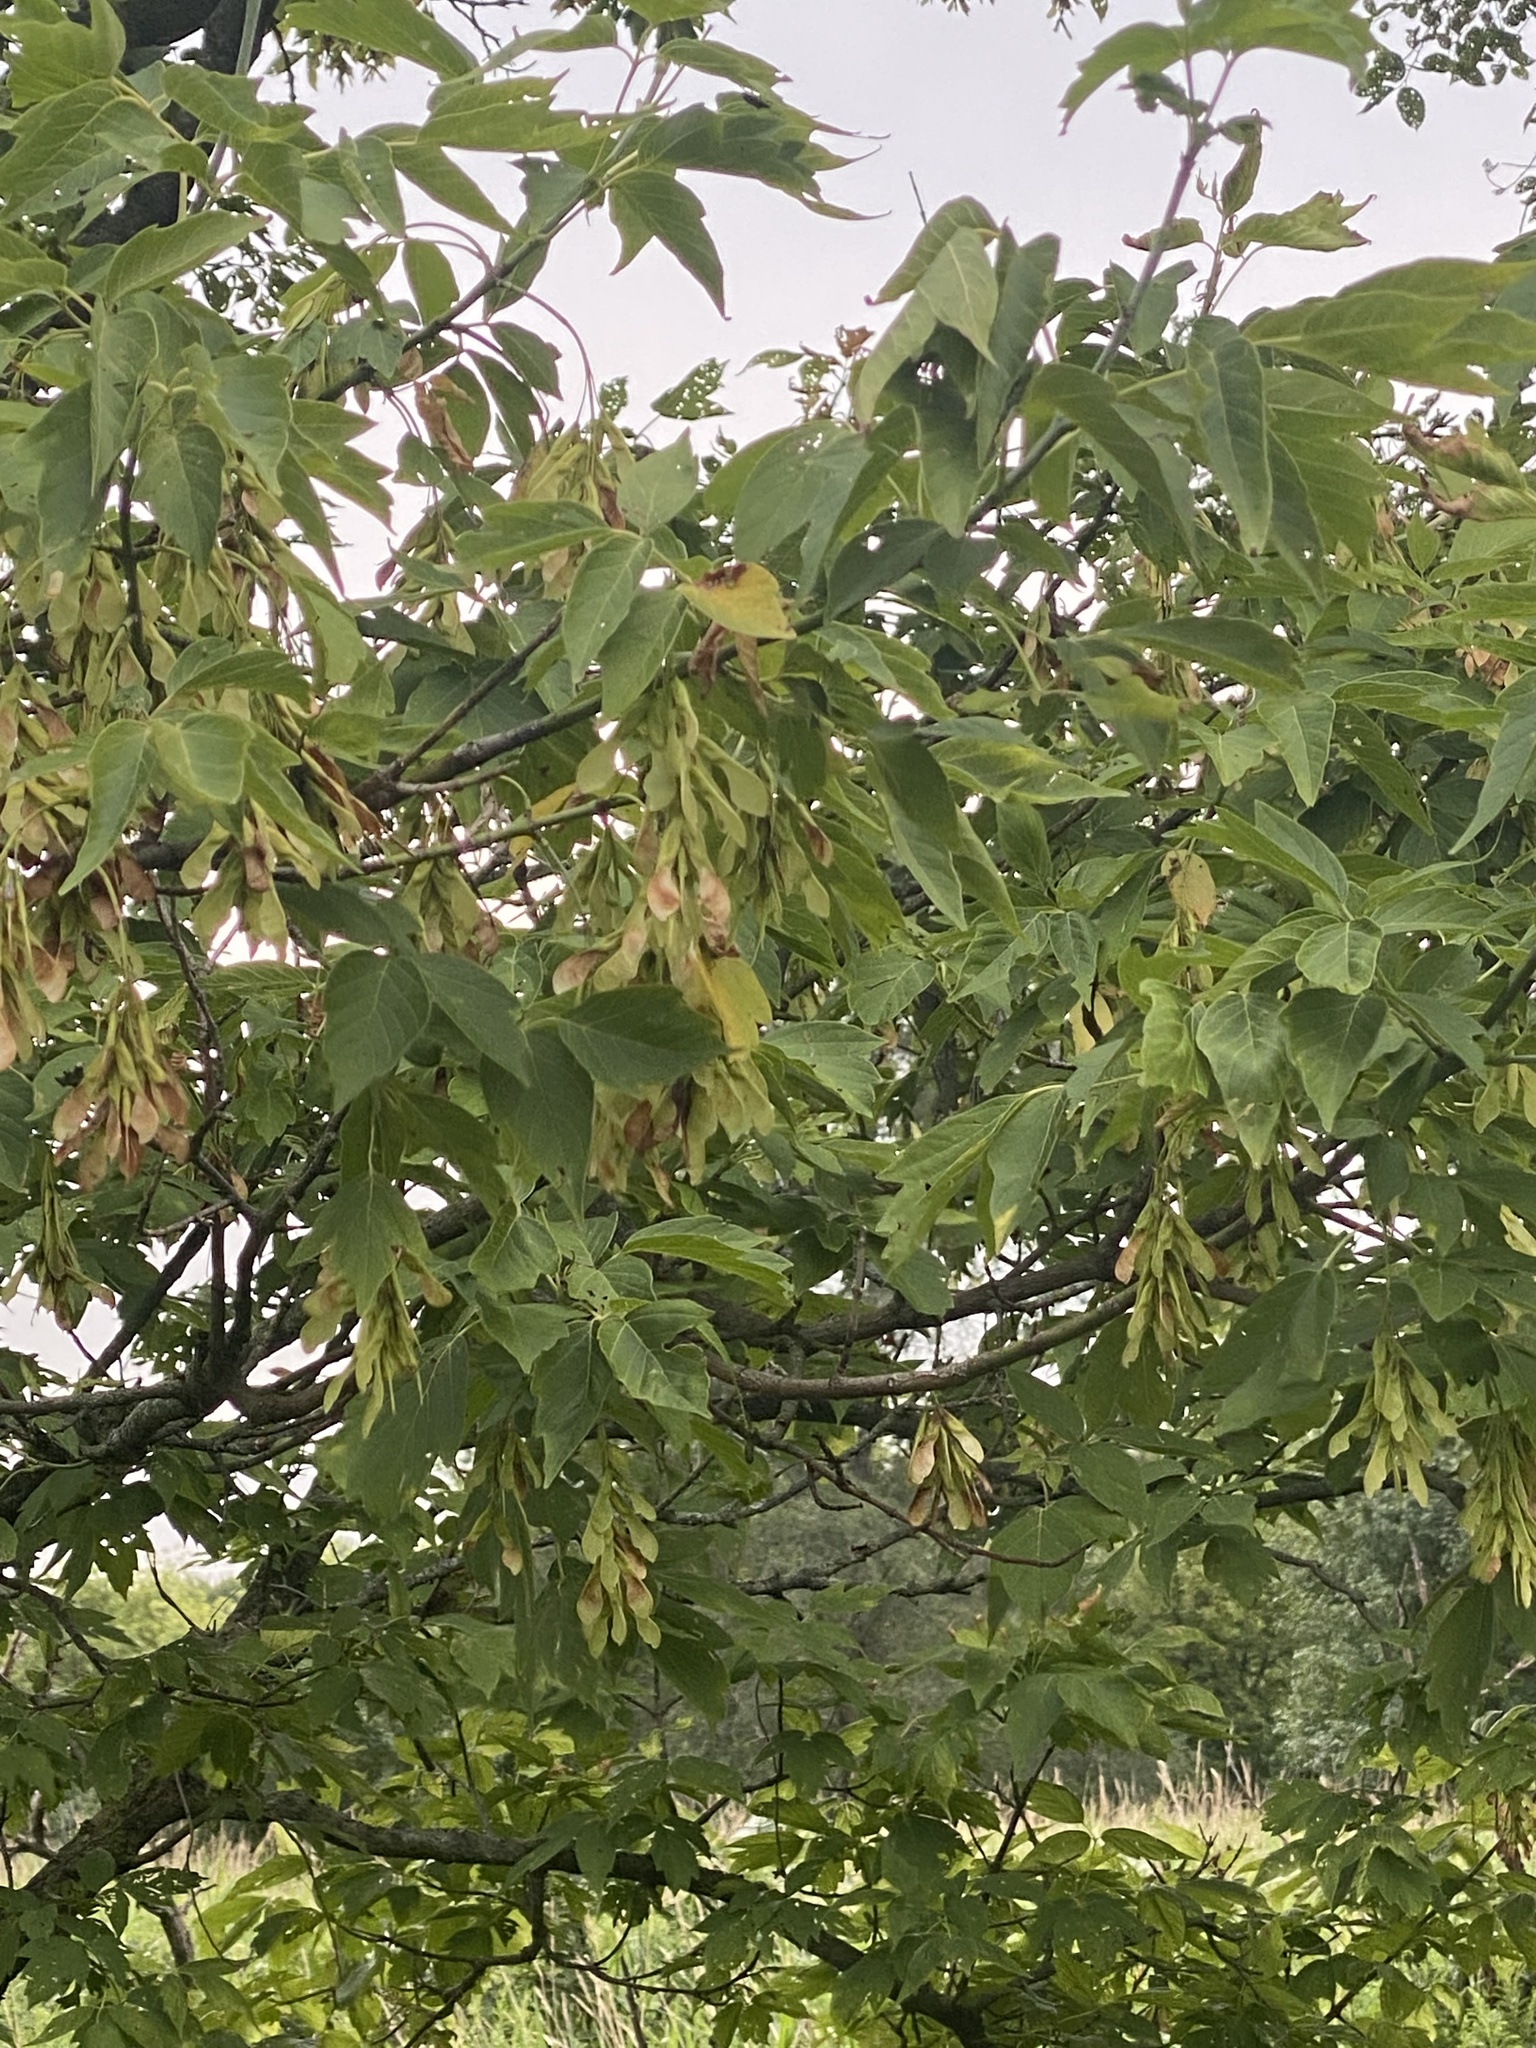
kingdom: Plantae
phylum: Tracheophyta
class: Magnoliopsida
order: Sapindales
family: Sapindaceae
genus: Acer
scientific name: Acer negundo
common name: Ashleaf maple
